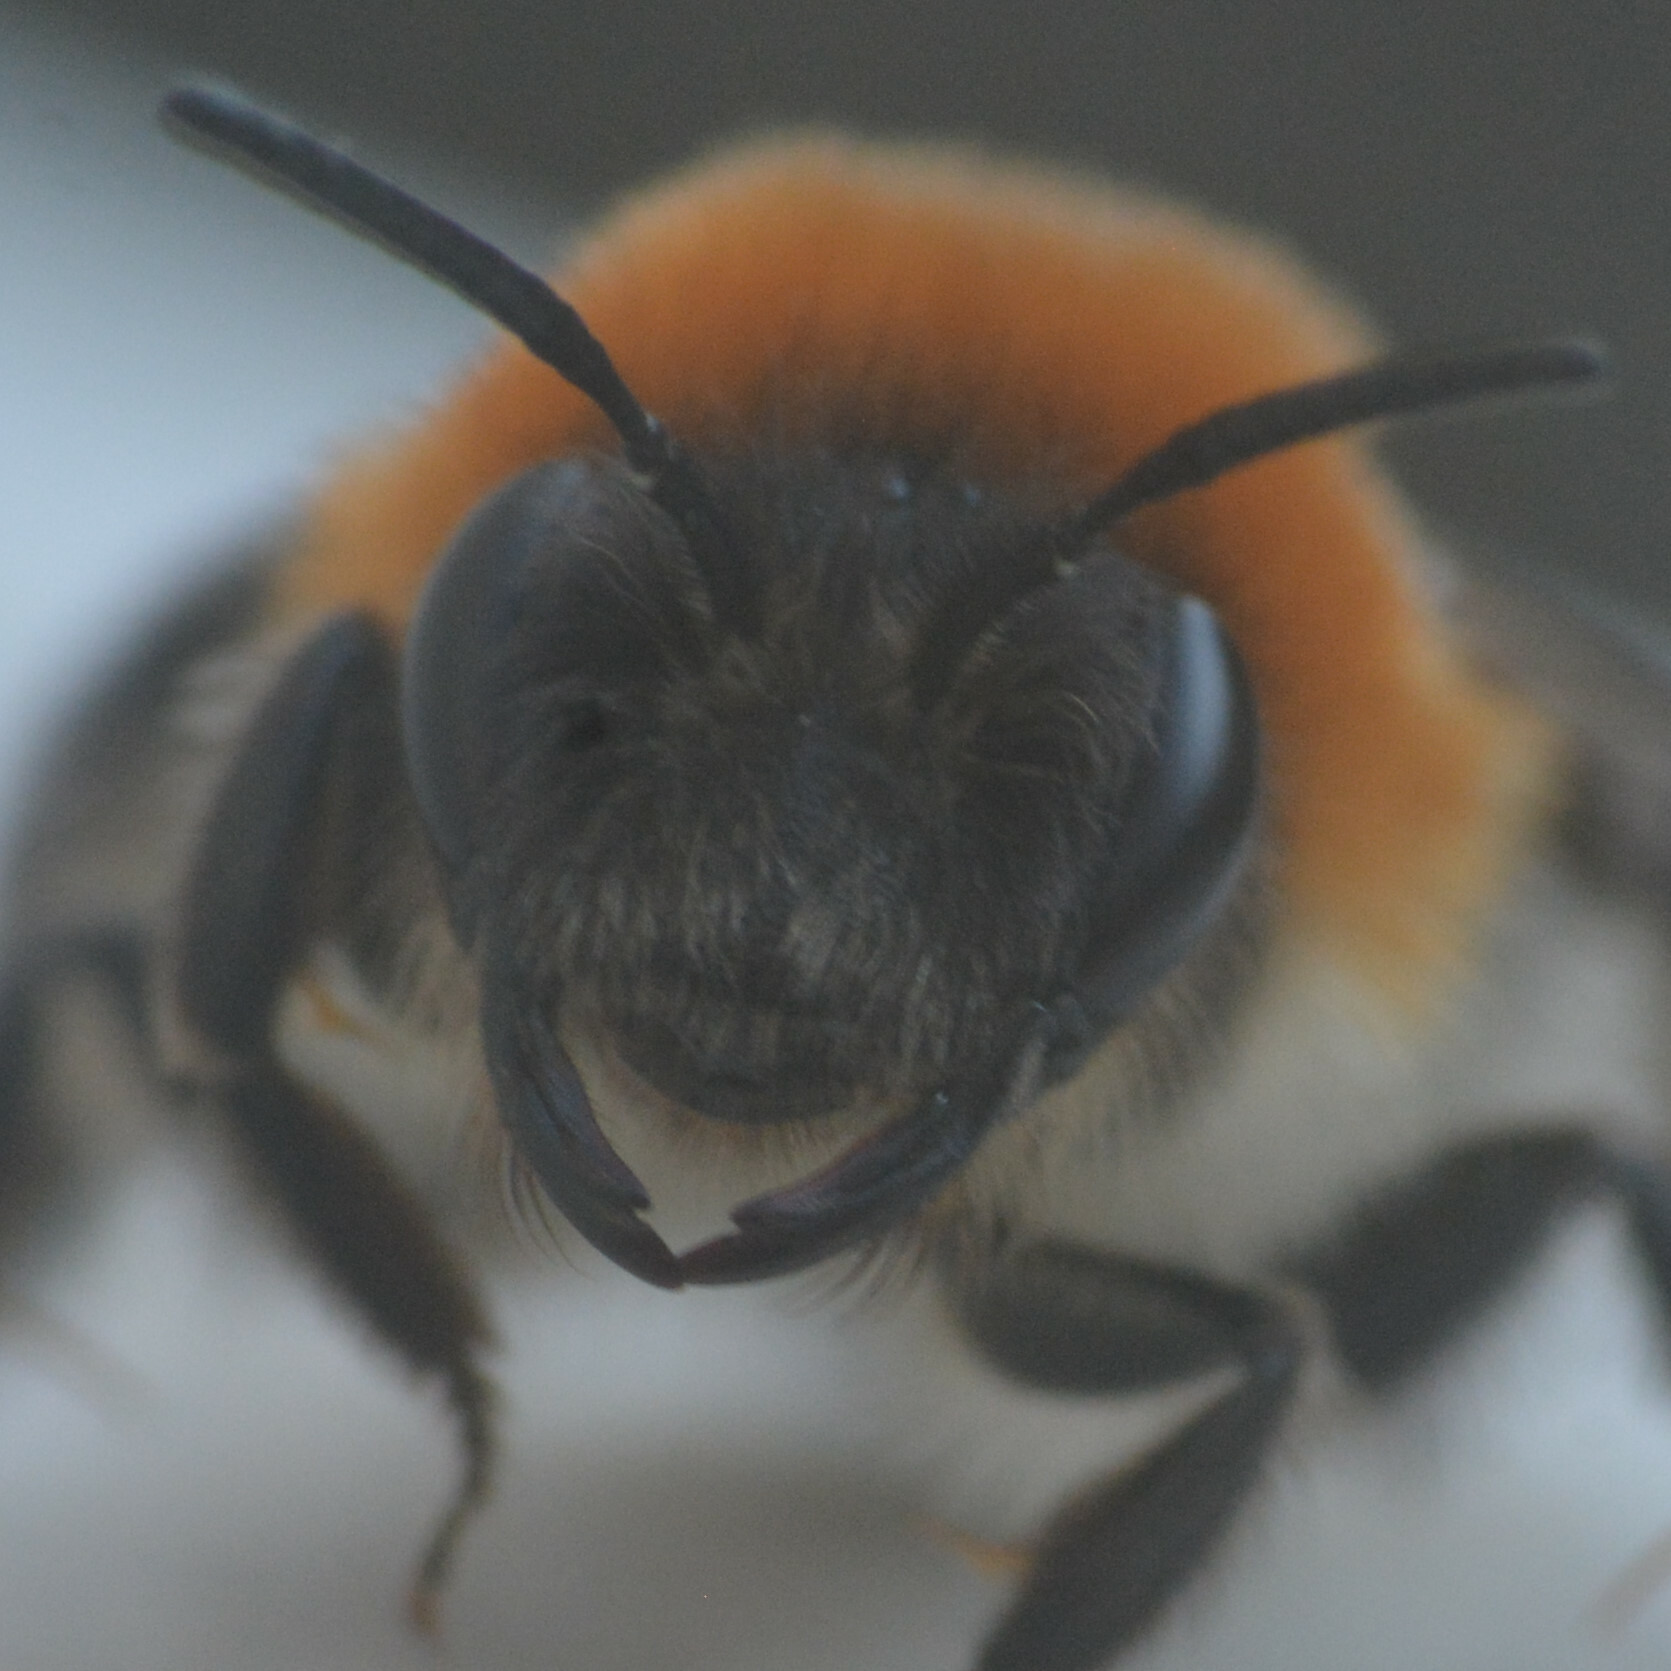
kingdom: Animalia
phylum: Arthropoda
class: Insecta
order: Hymenoptera
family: Andrenidae
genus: Andrena
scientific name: Andrena nitida
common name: Grey-patched mining bee
